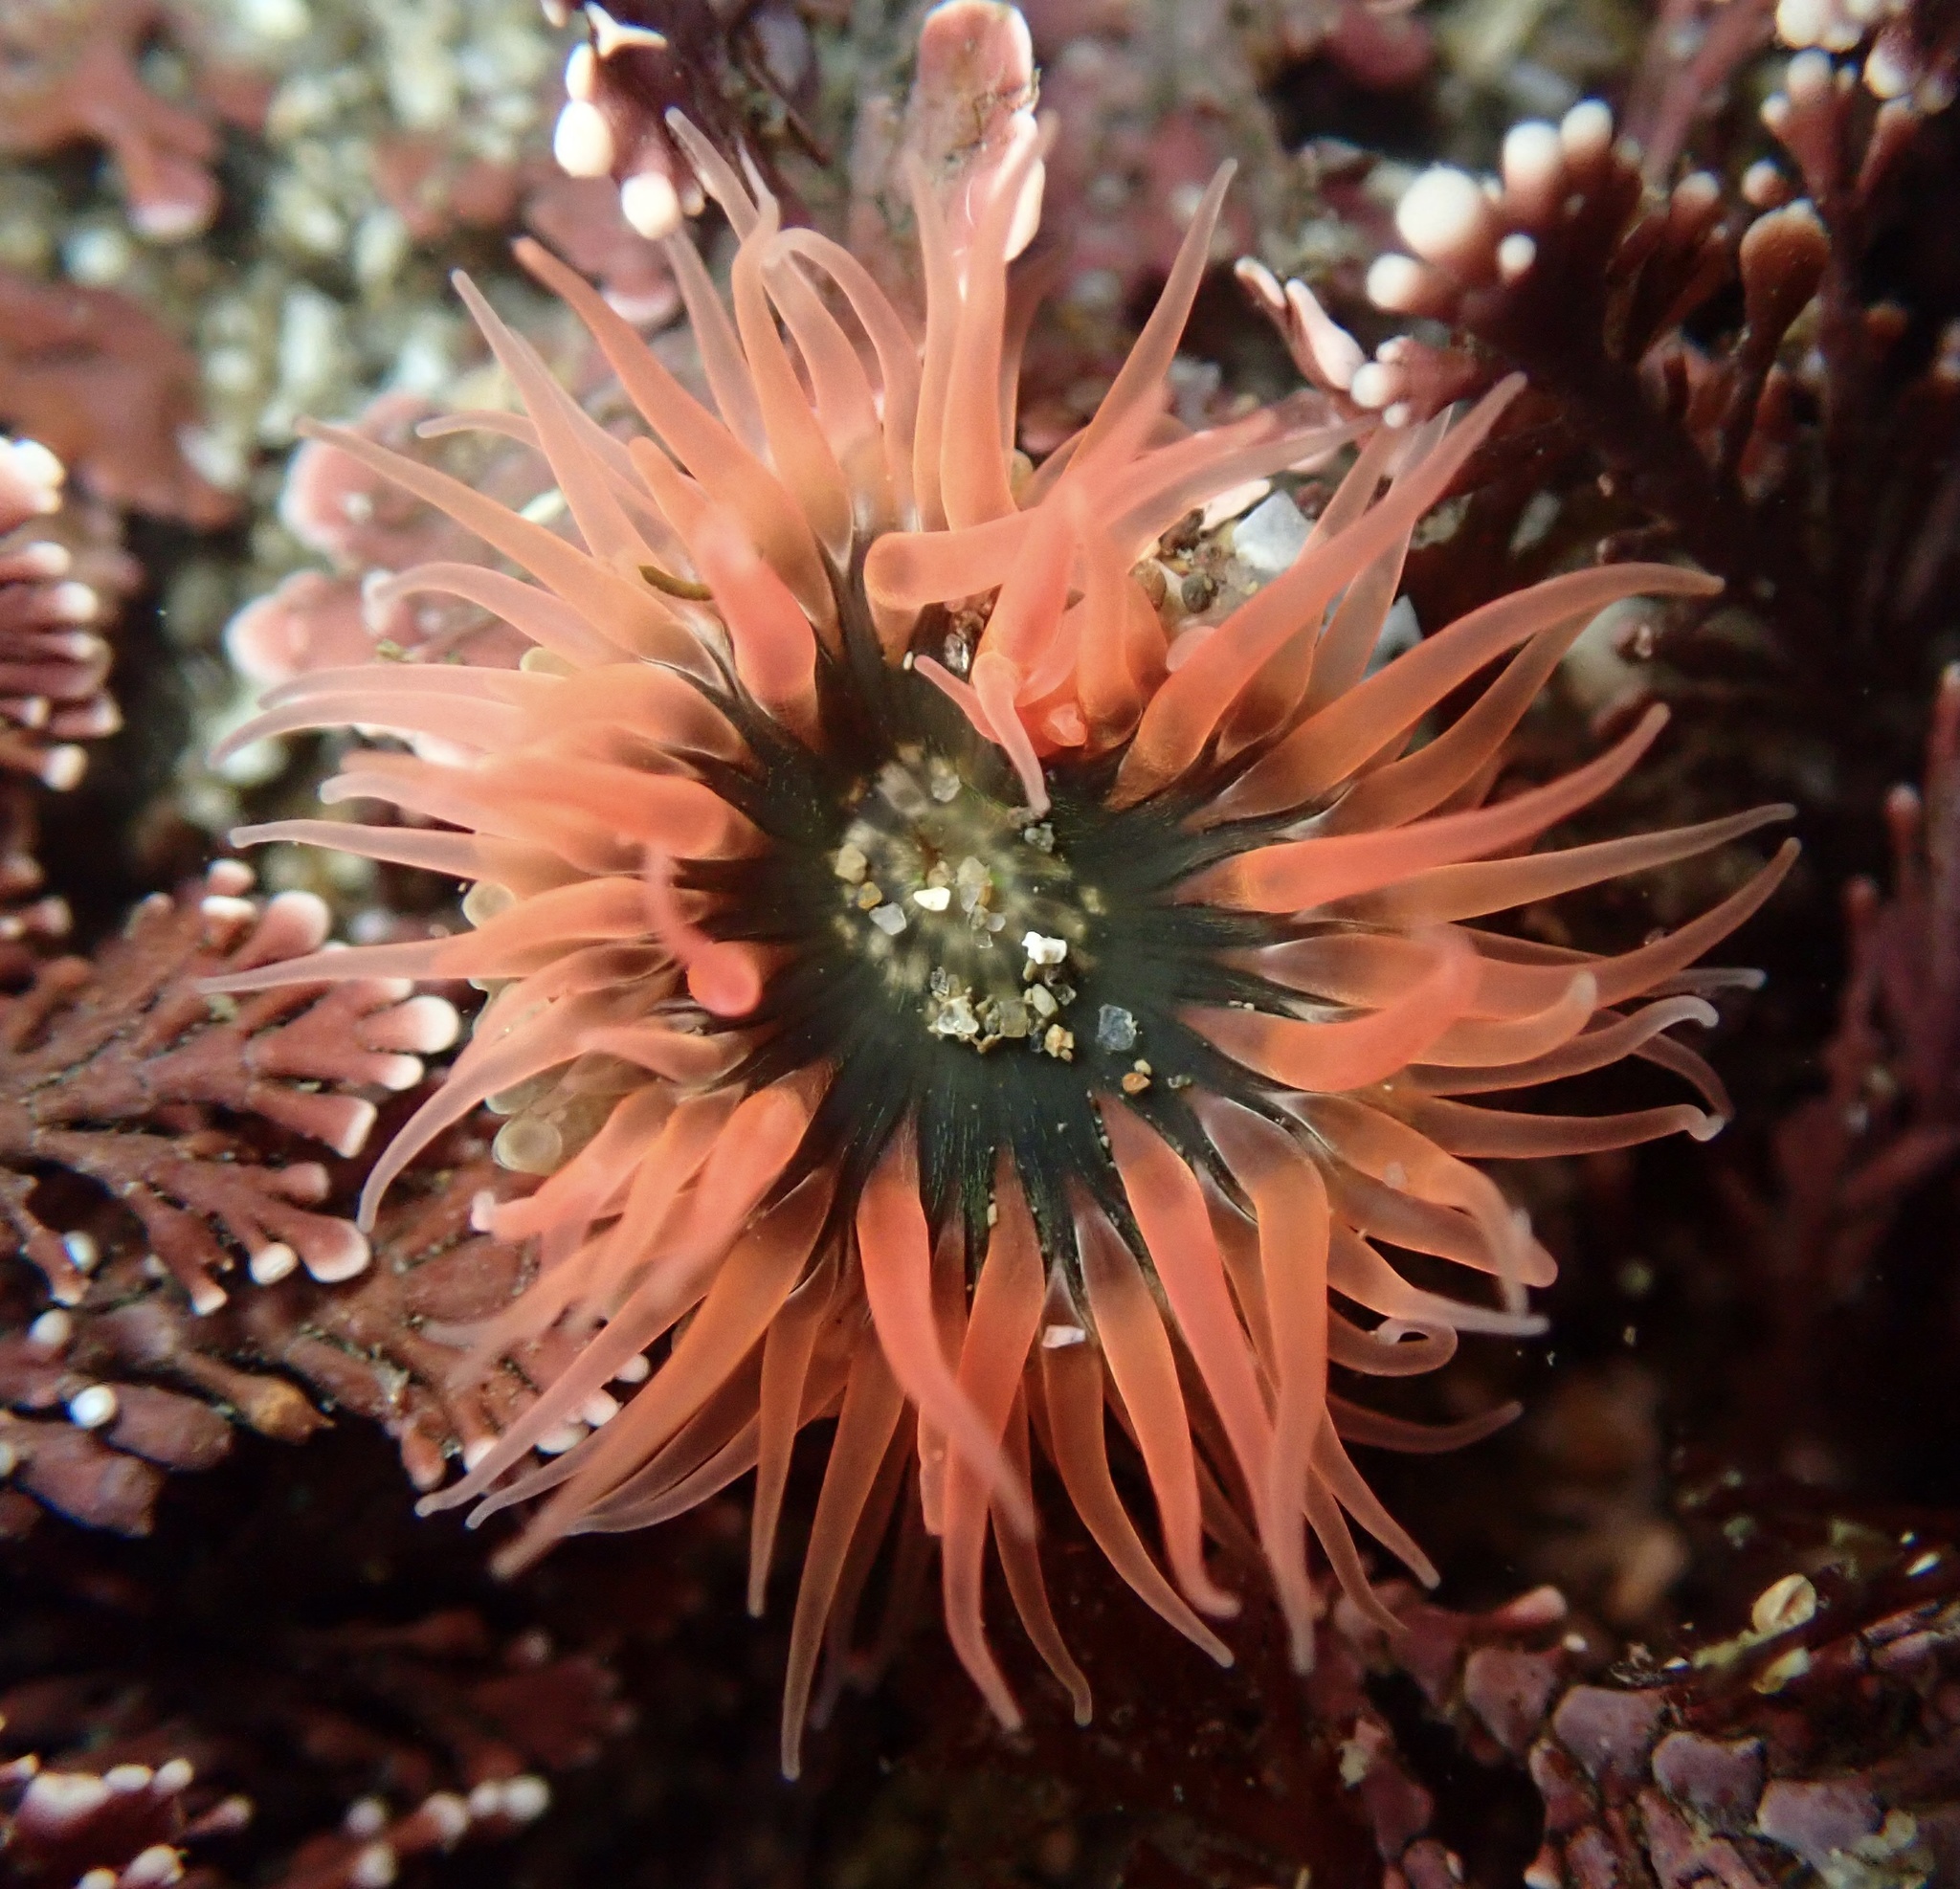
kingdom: Animalia
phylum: Cnidaria
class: Anthozoa
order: Actiniaria
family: Actiniidae
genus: Anthopleura
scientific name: Anthopleura artemisia
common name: Buried sea anemone
